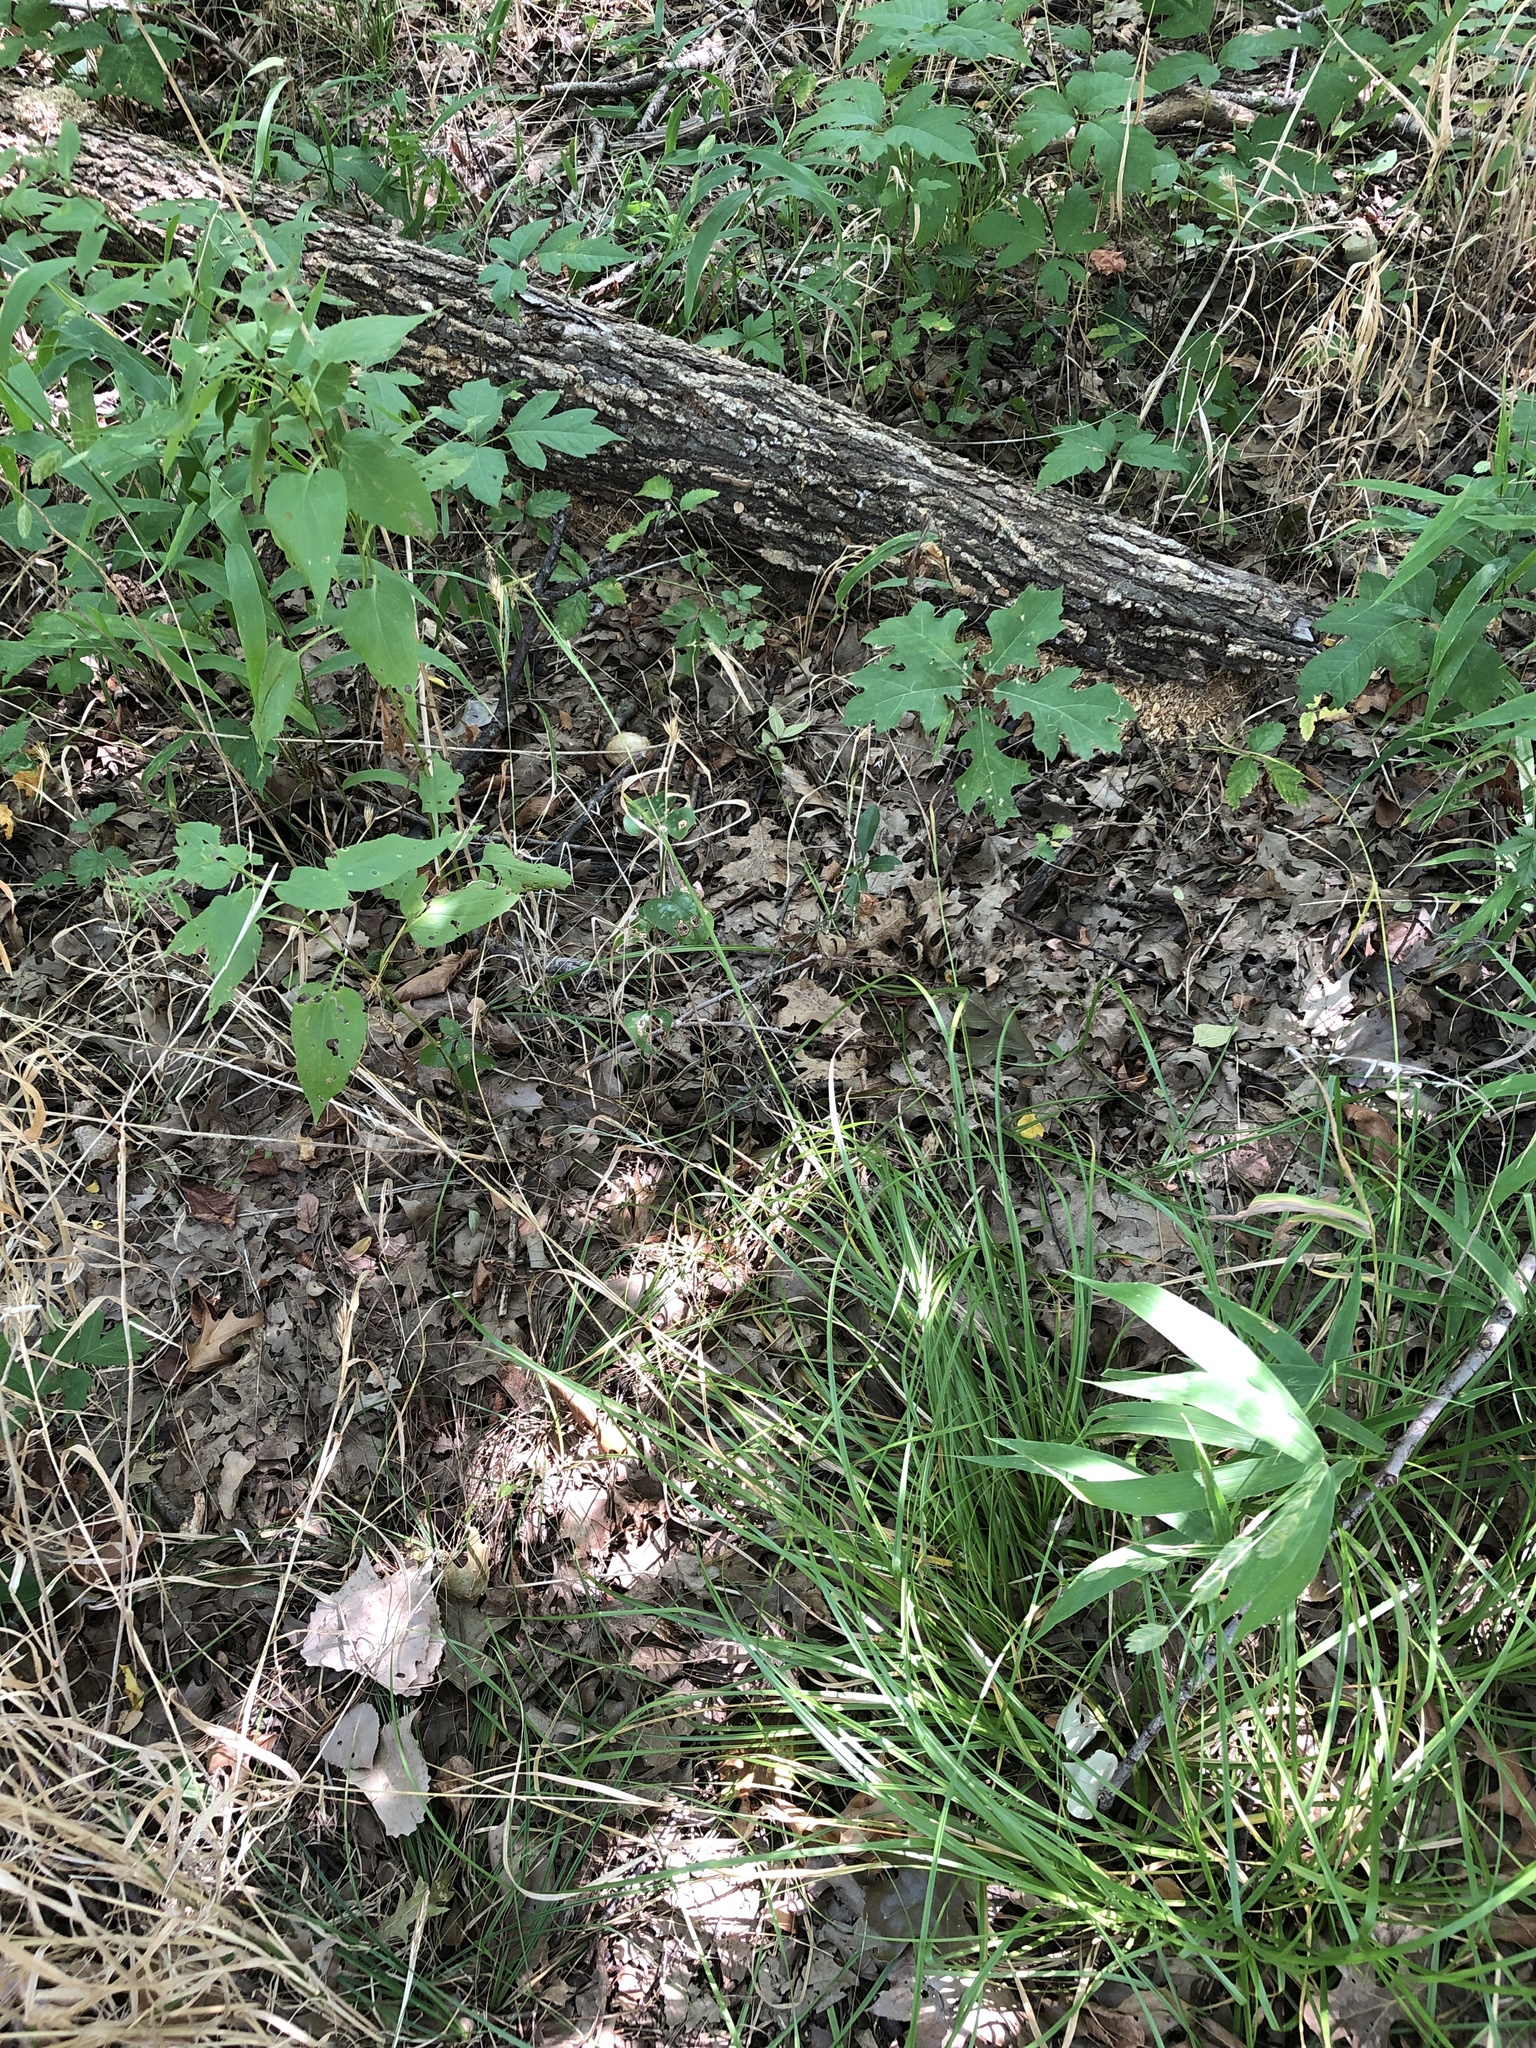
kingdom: Plantae
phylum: Tracheophyta
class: Liliopsida
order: Poales
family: Cyperaceae
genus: Carex
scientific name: Carex cherokeensis
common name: Cherokee sedge
